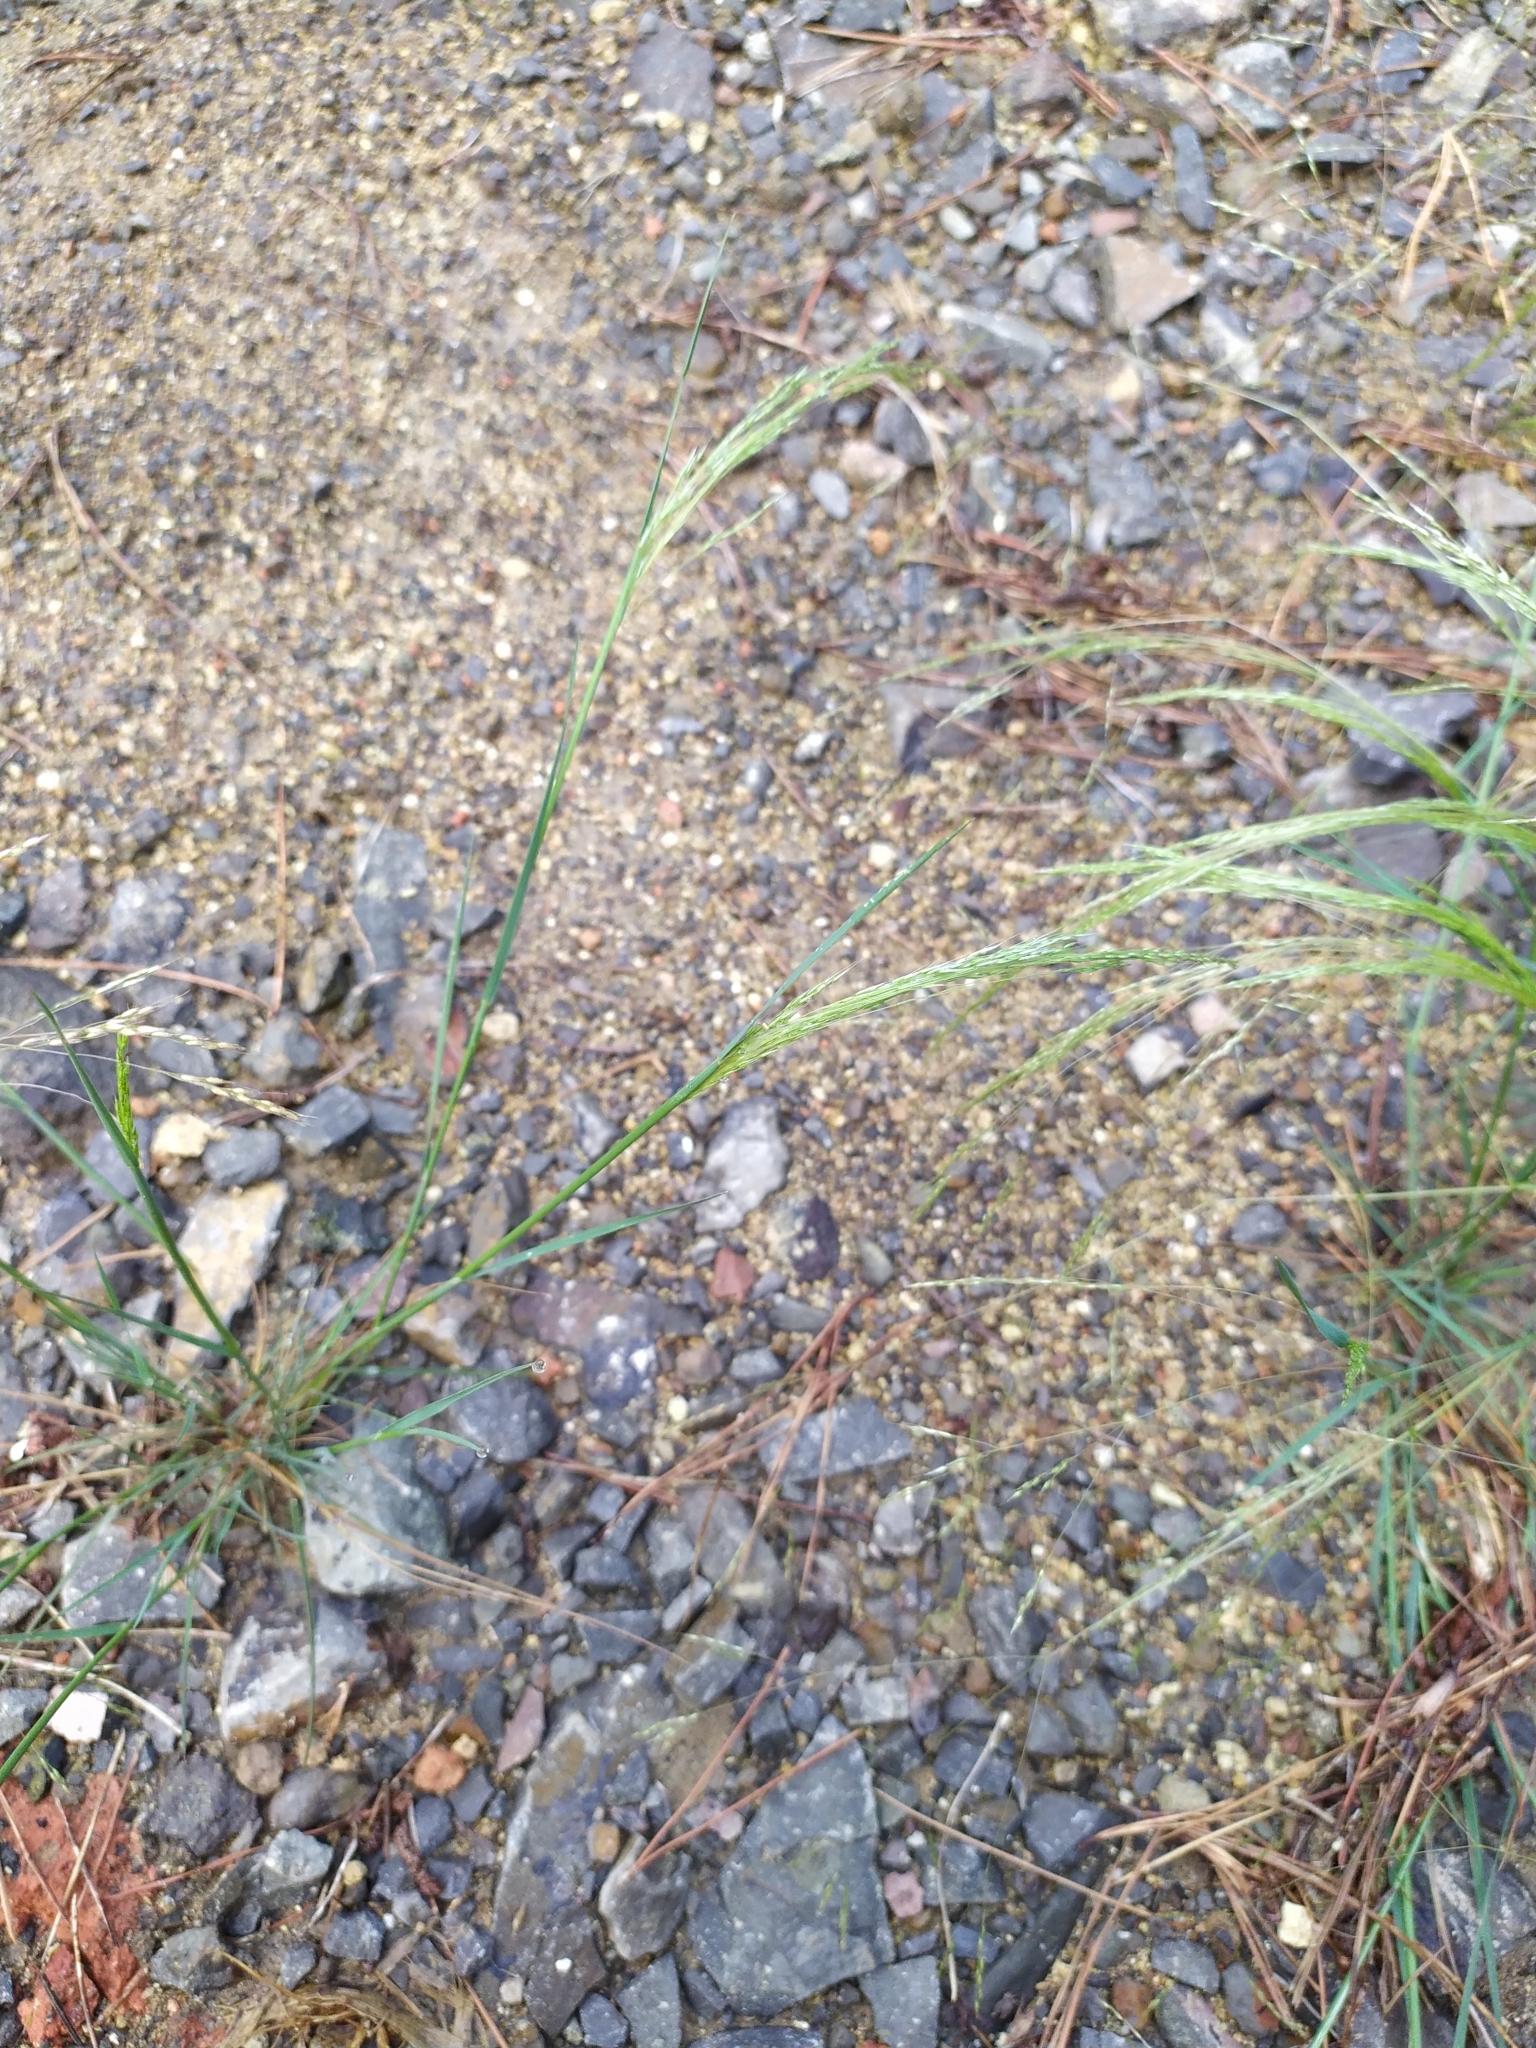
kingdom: Plantae
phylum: Tracheophyta
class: Liliopsida
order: Poales
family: Poaceae
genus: Lachnagrostis
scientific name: Lachnagrostis filiformis
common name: Bentgrass
